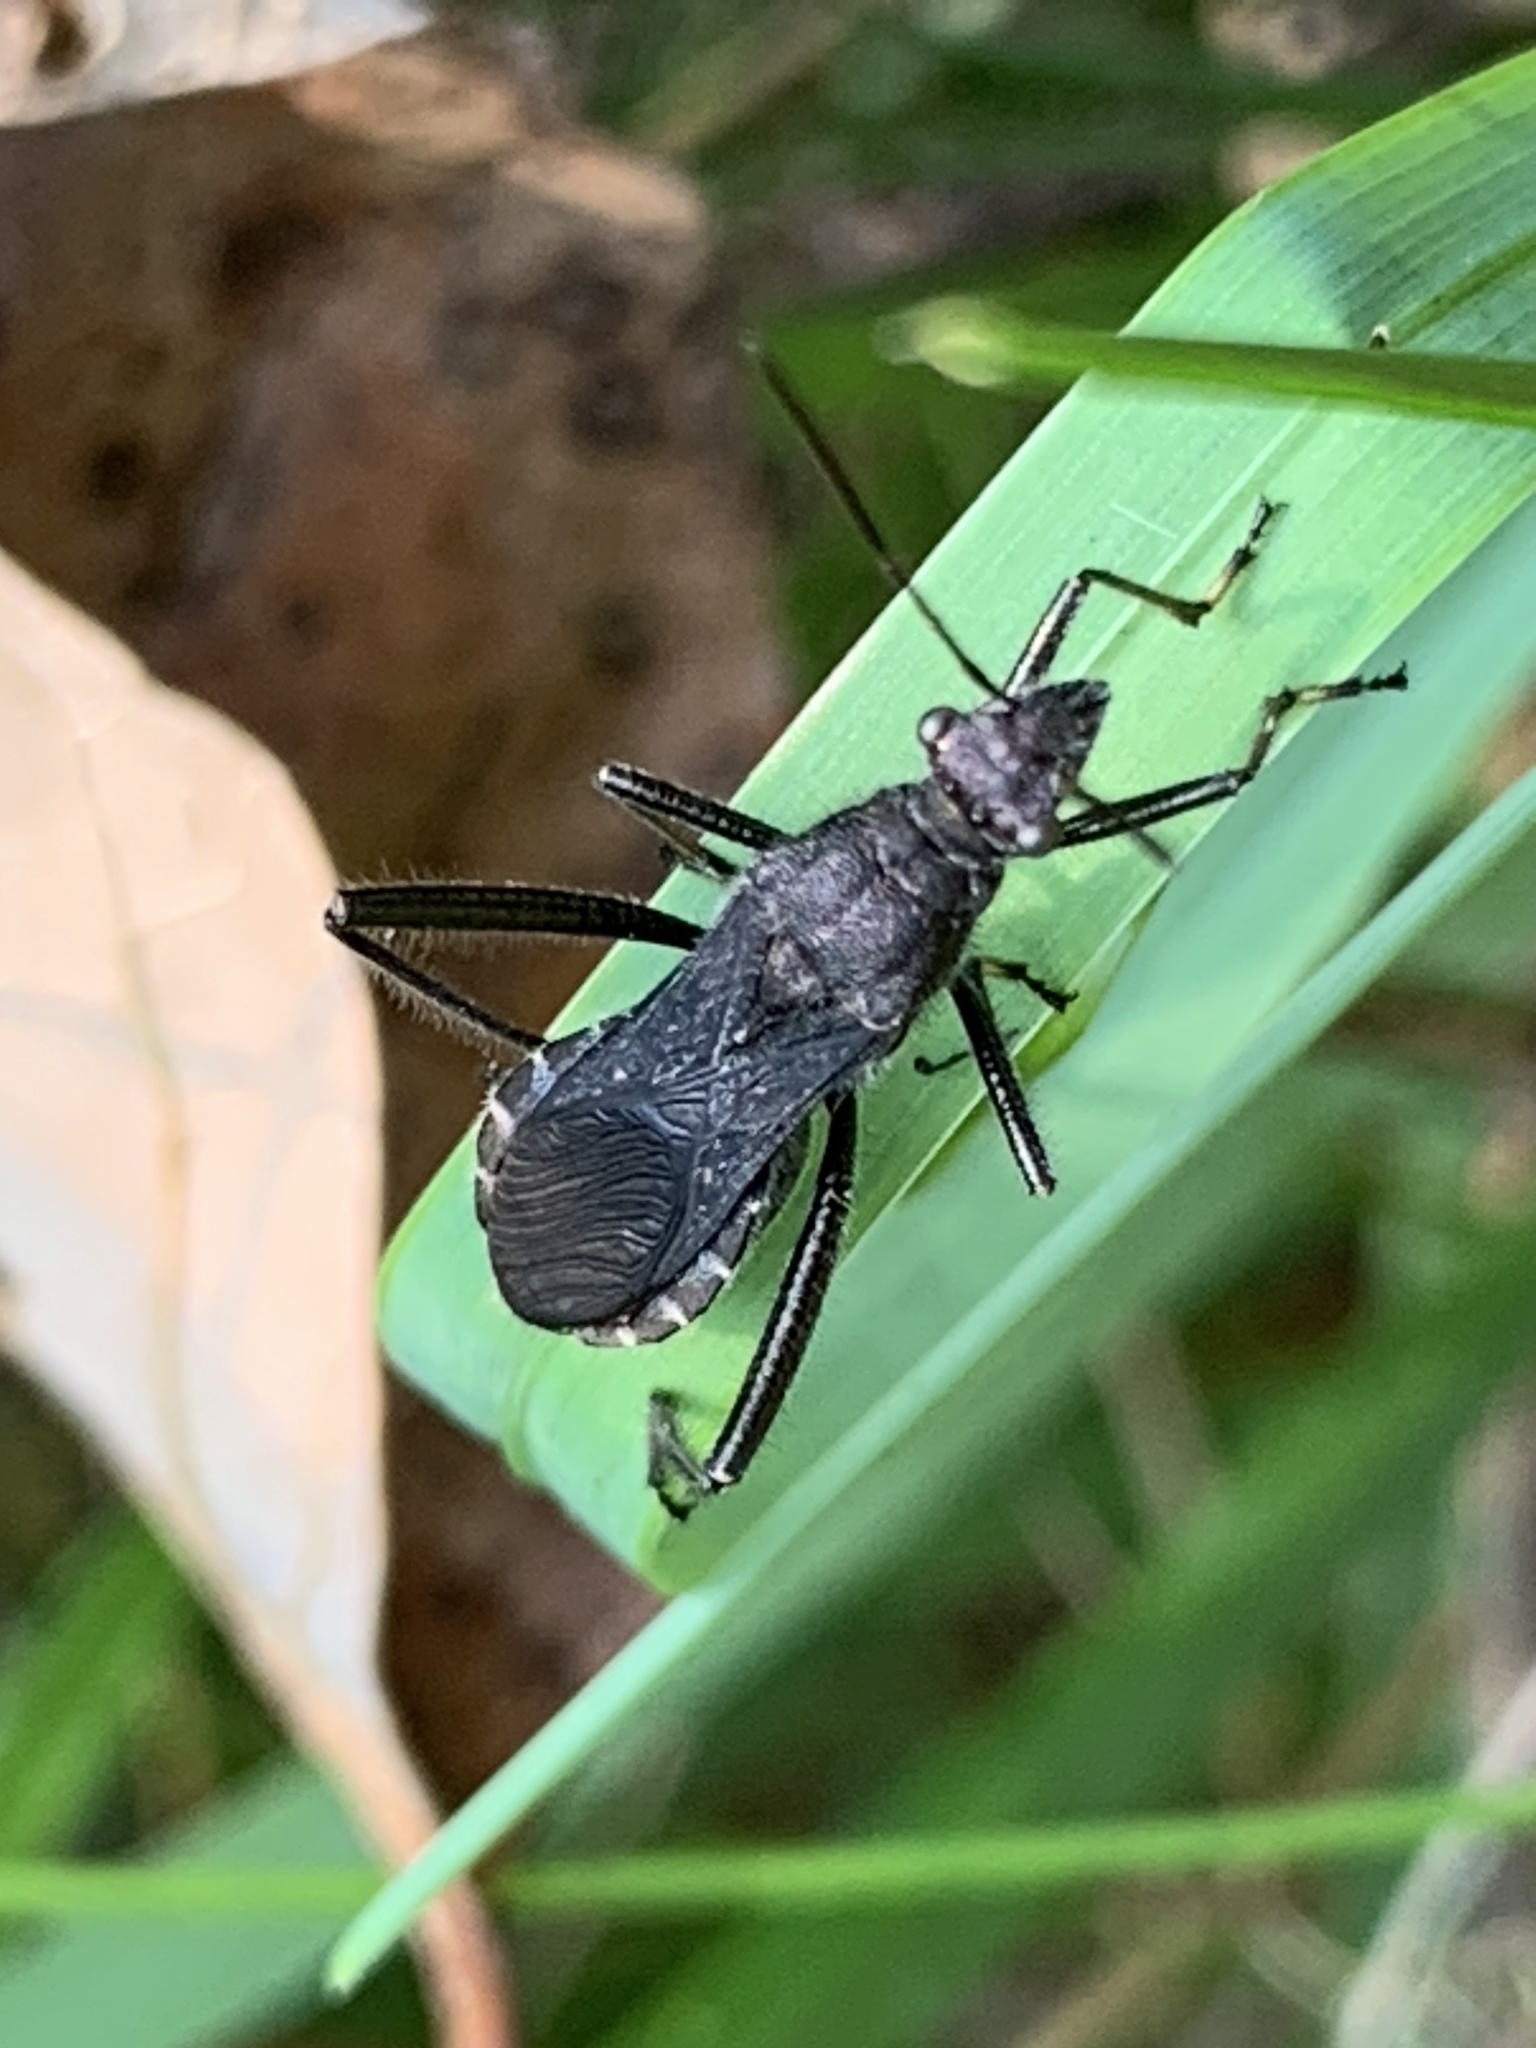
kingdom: Animalia
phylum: Arthropoda
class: Insecta
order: Hemiptera
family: Alydidae
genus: Alydus
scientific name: Alydus eurinus
